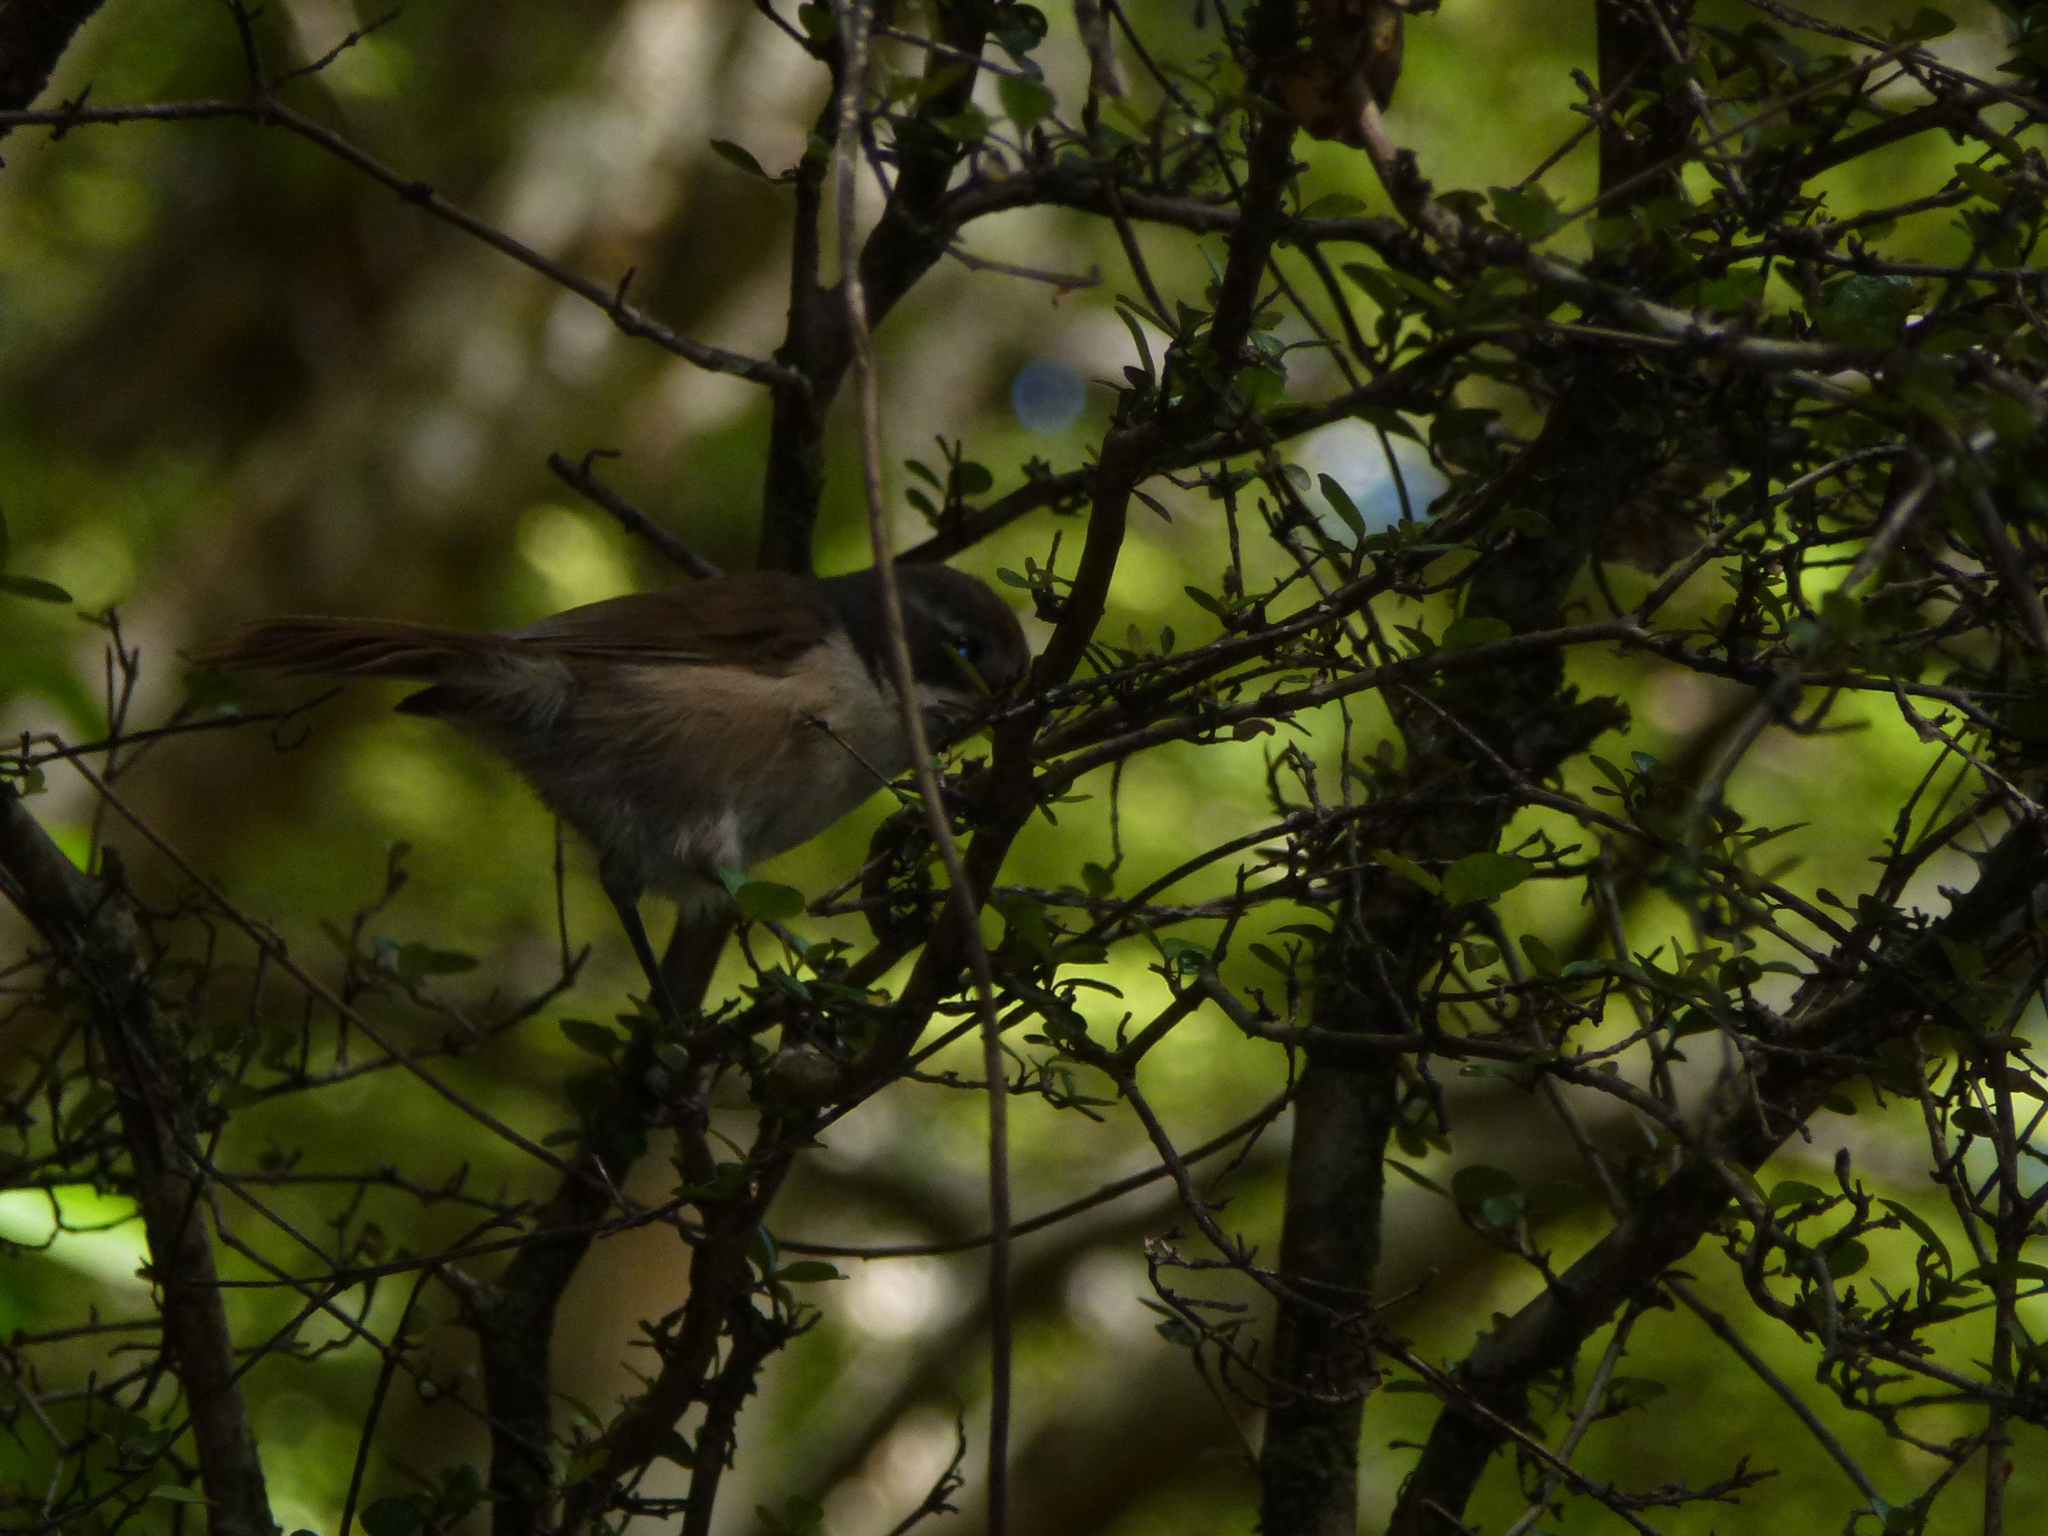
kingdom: Animalia
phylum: Chordata
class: Aves
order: Passeriformes
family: Acanthizidae
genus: Finschia
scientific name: Finschia novaeseelandiae
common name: Pipipi
